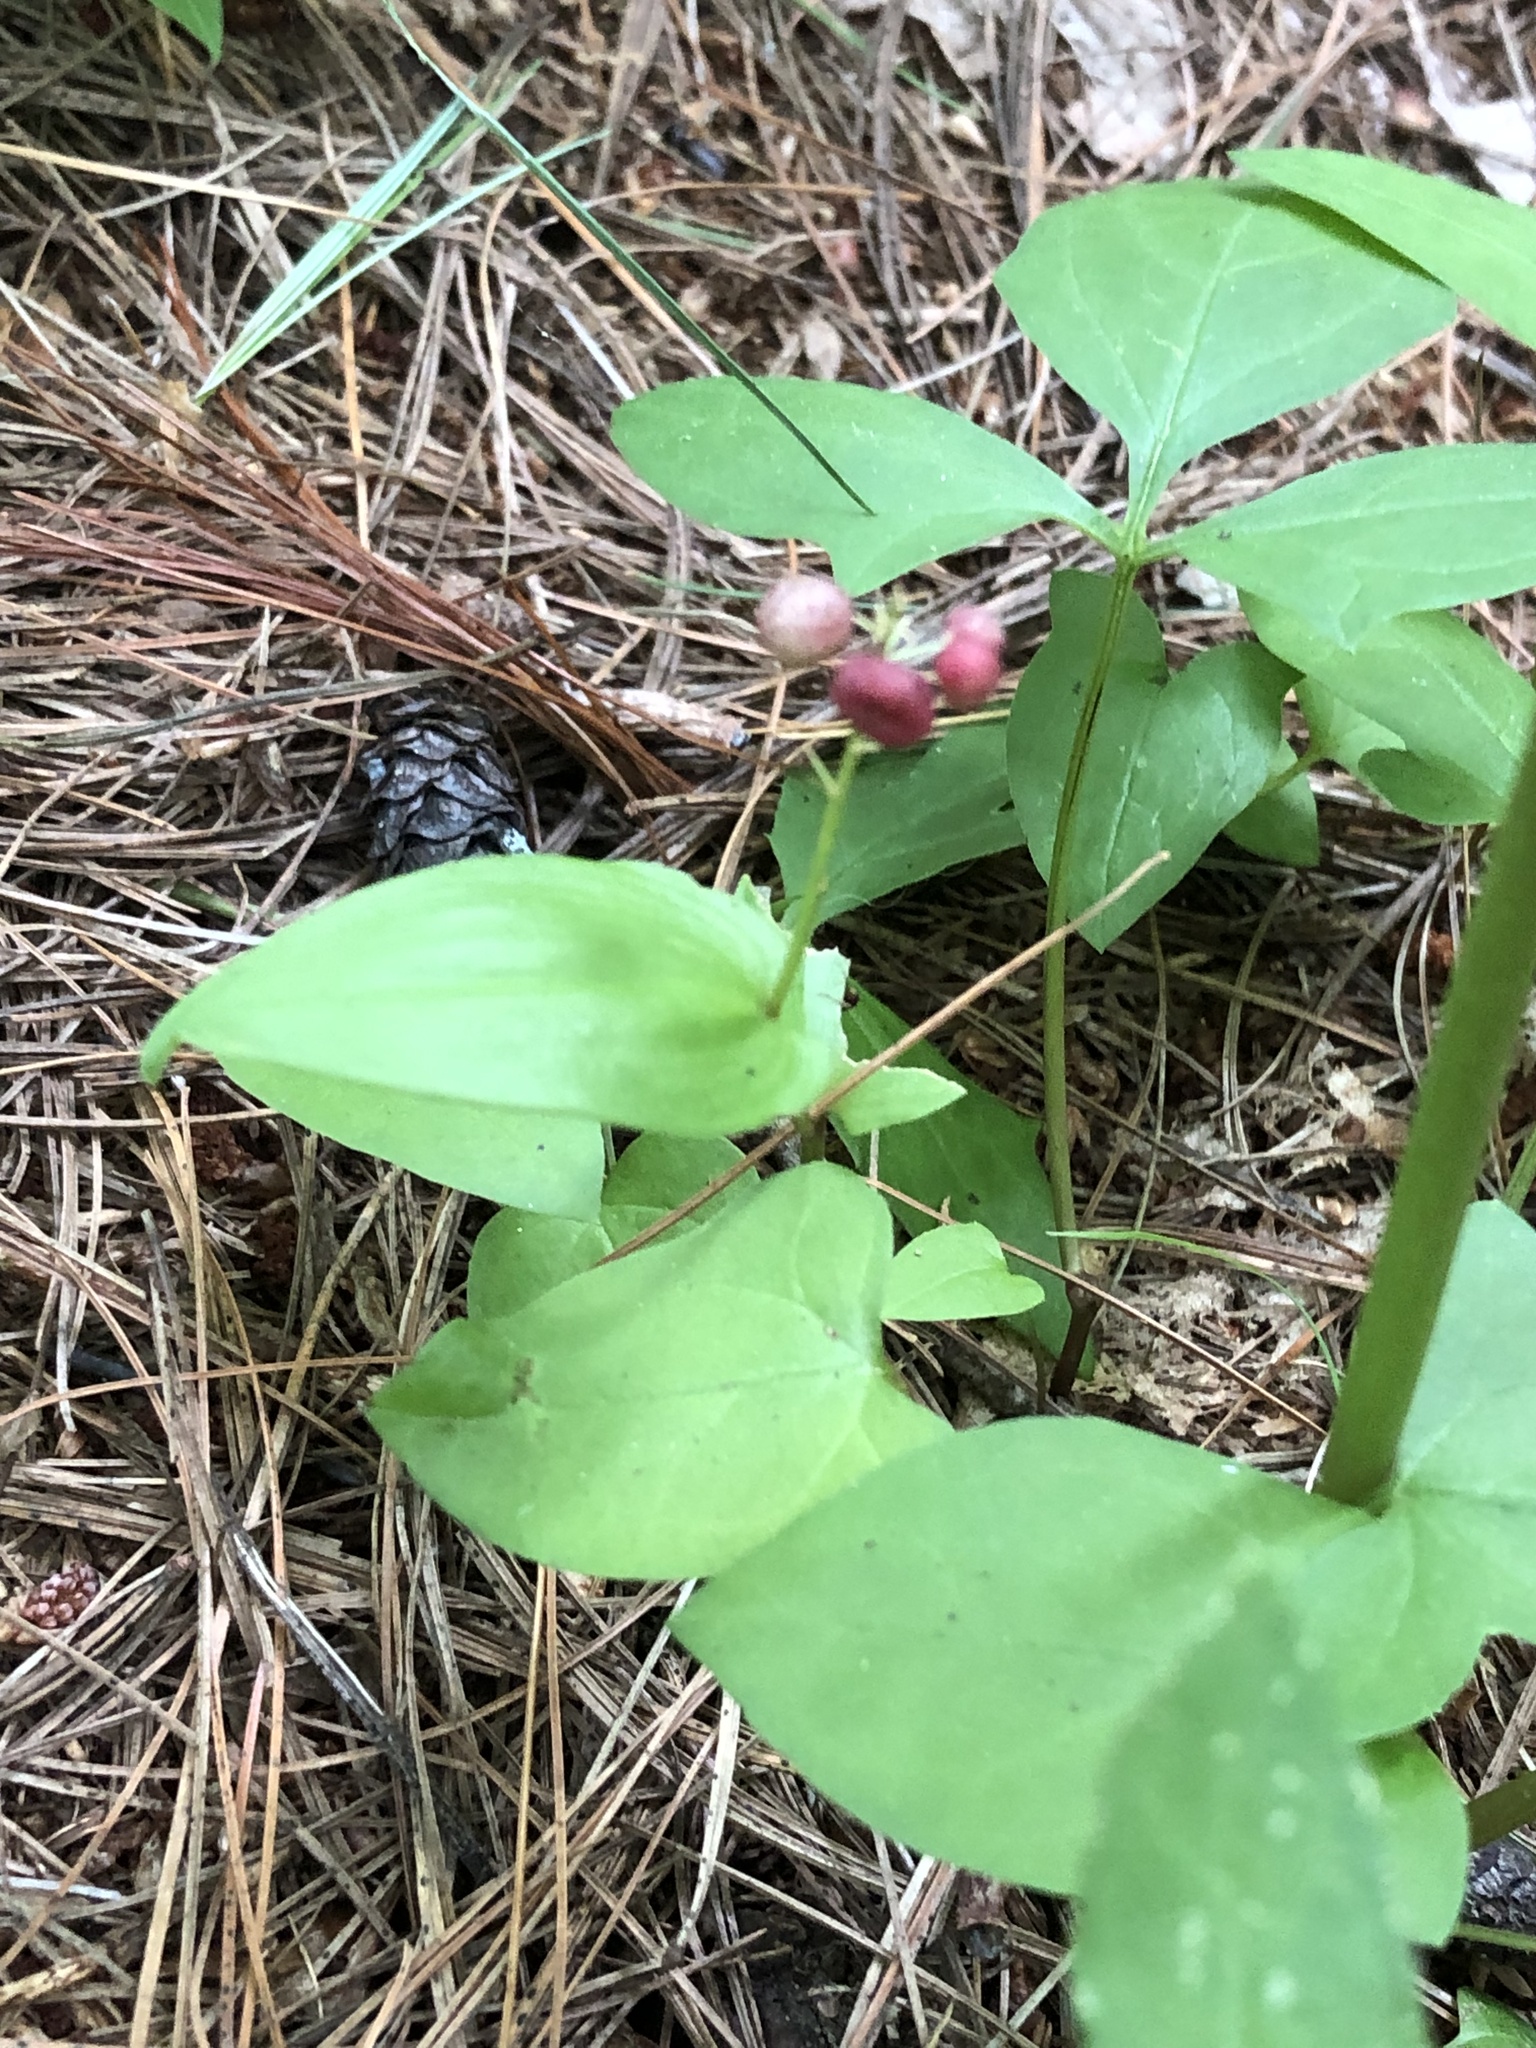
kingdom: Plantae
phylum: Tracheophyta
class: Liliopsida
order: Asparagales
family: Asparagaceae
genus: Maianthemum
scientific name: Maianthemum canadense
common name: False lily-of-the-valley
